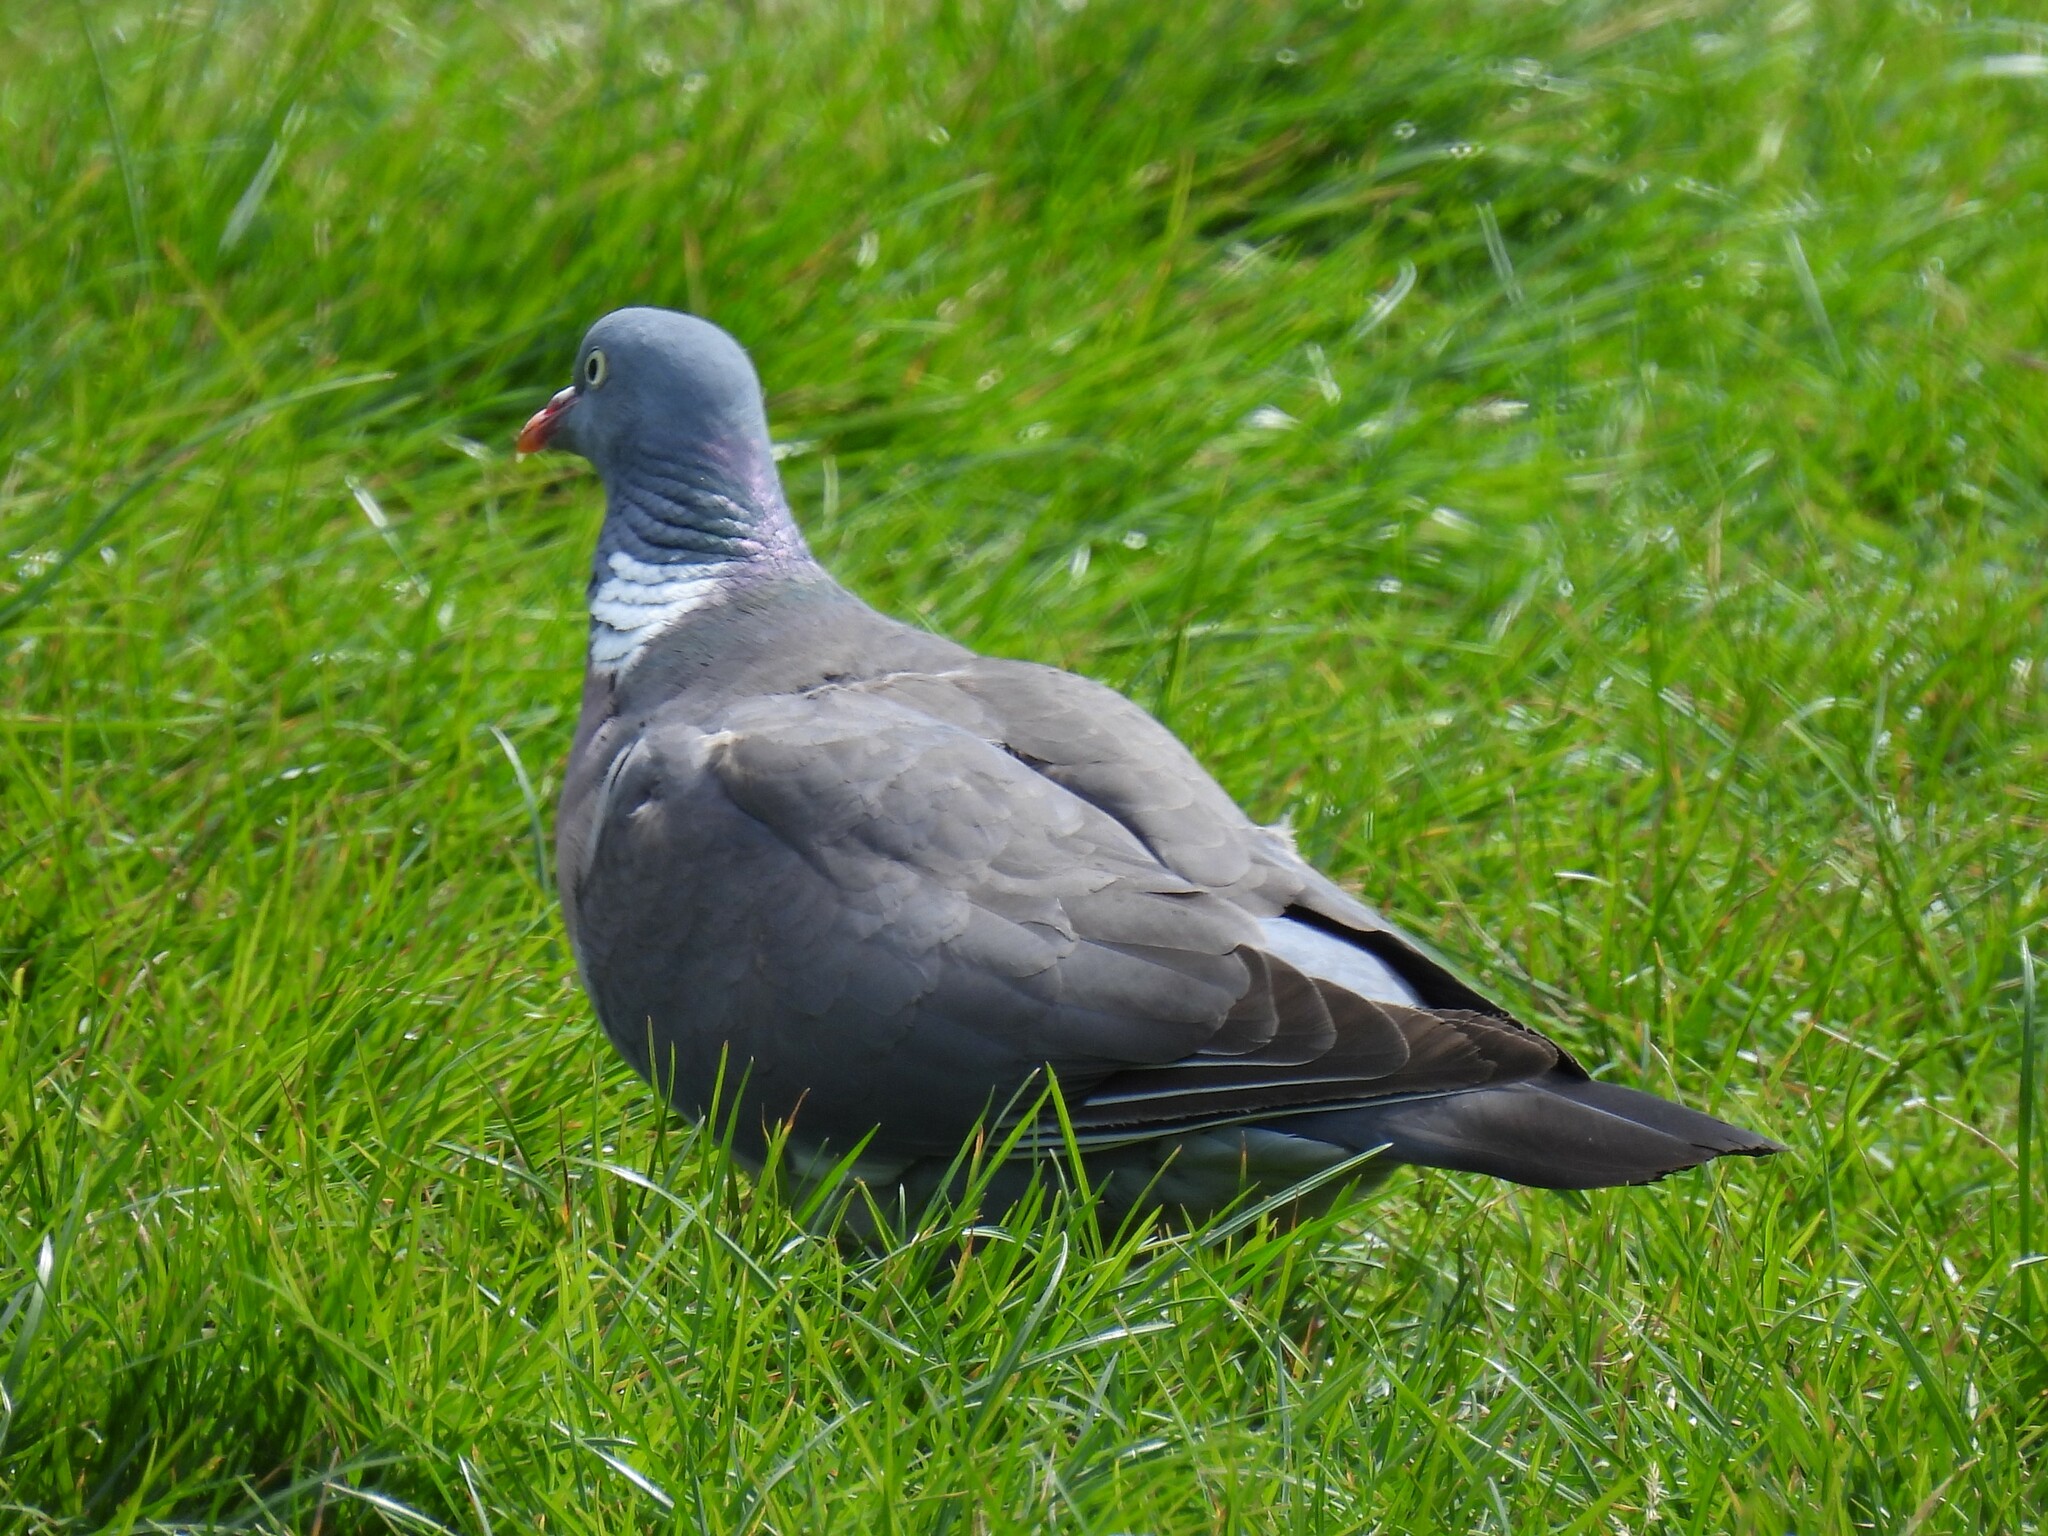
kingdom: Animalia
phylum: Chordata
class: Aves
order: Columbiformes
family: Columbidae
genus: Columba
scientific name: Columba palumbus
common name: Common wood pigeon
